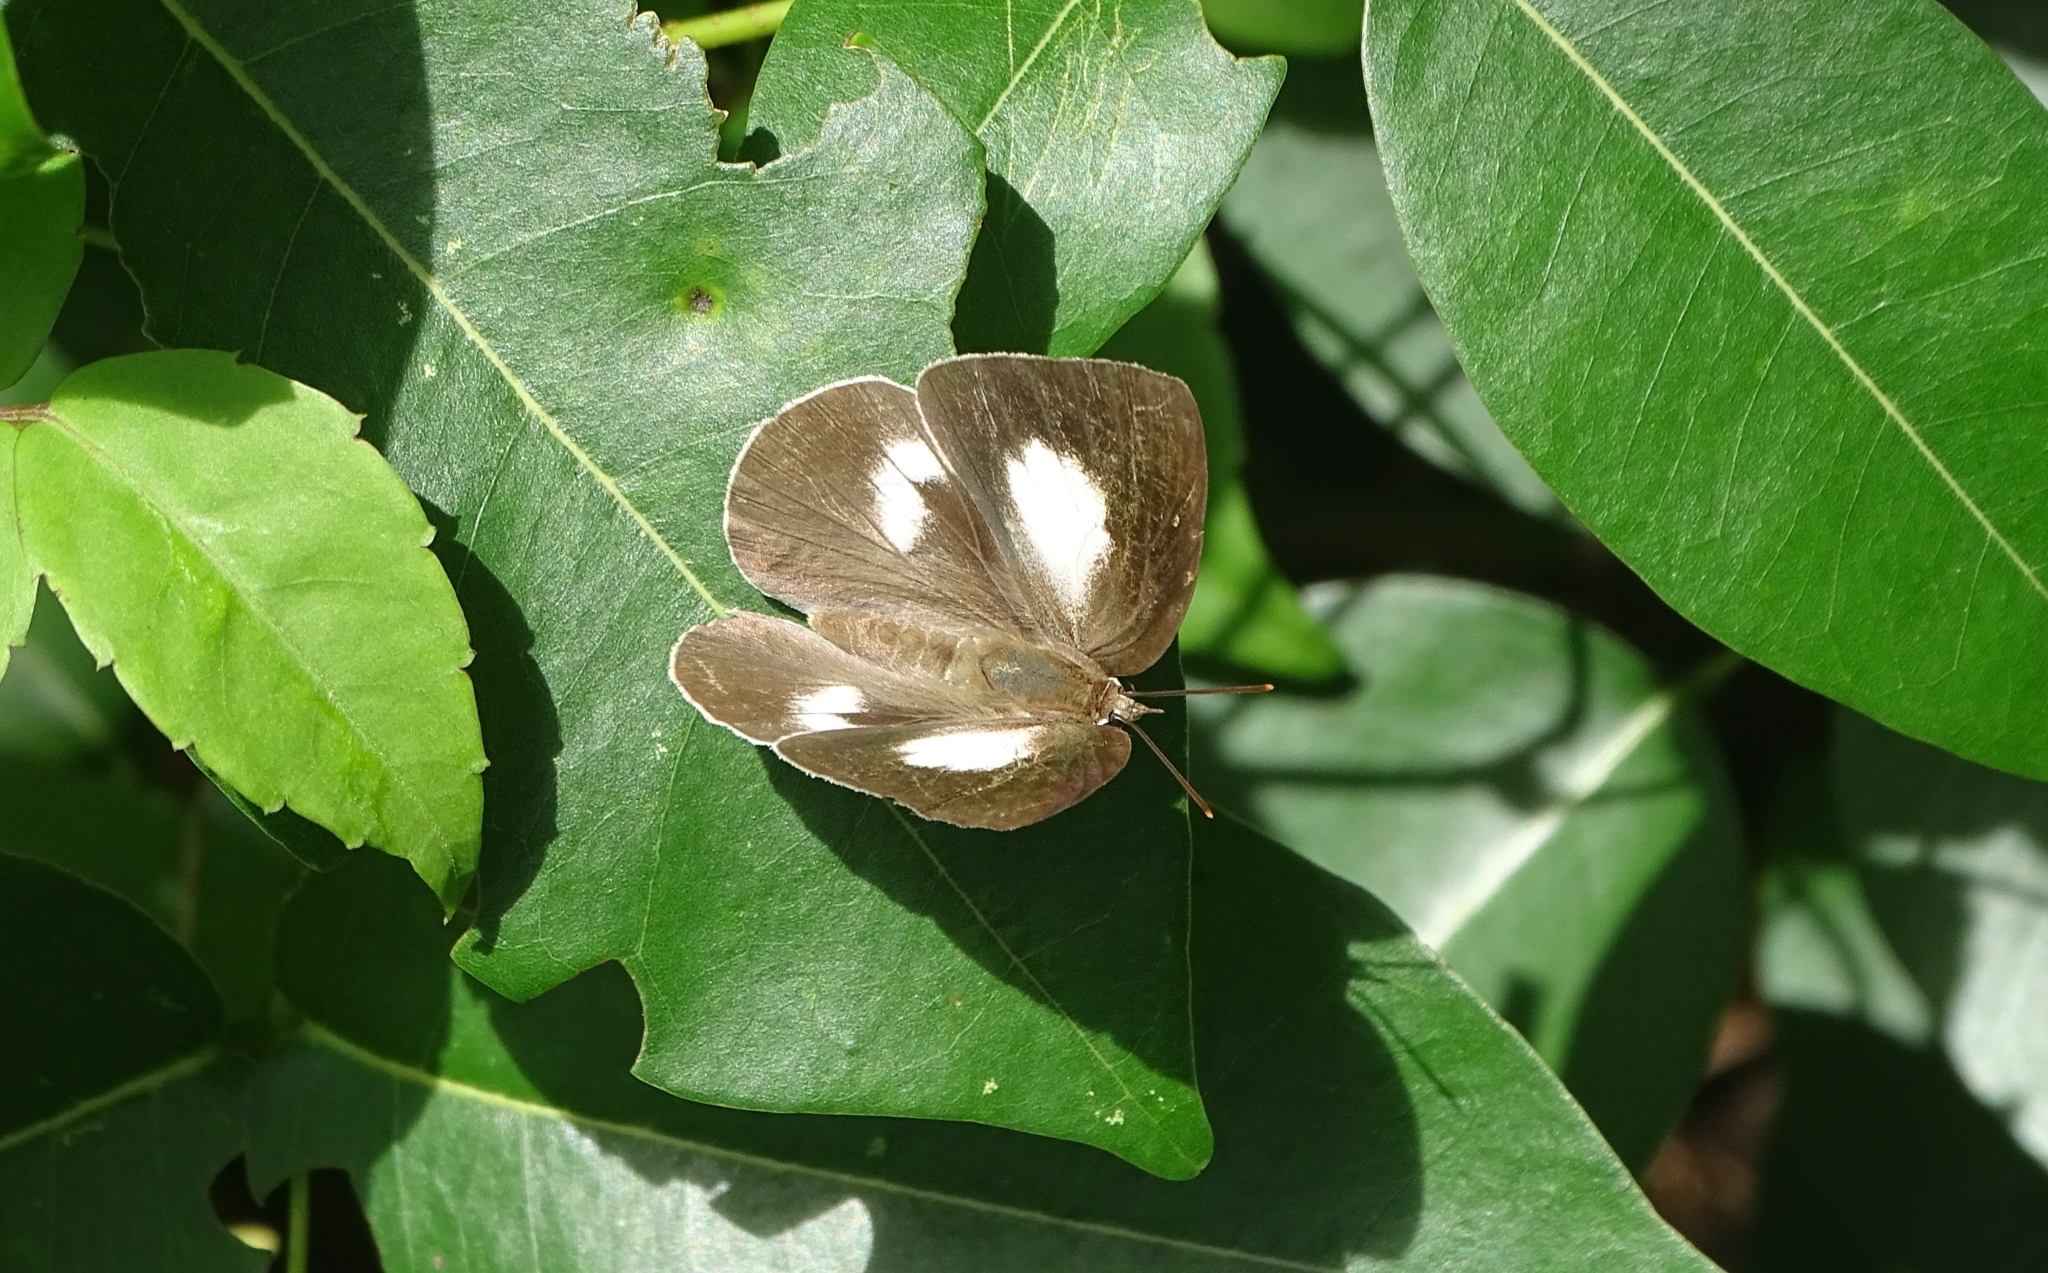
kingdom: Animalia
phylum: Arthropoda
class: Insecta
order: Lepidoptera
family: Lycaenidae
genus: Curetis
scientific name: Curetis thetis
